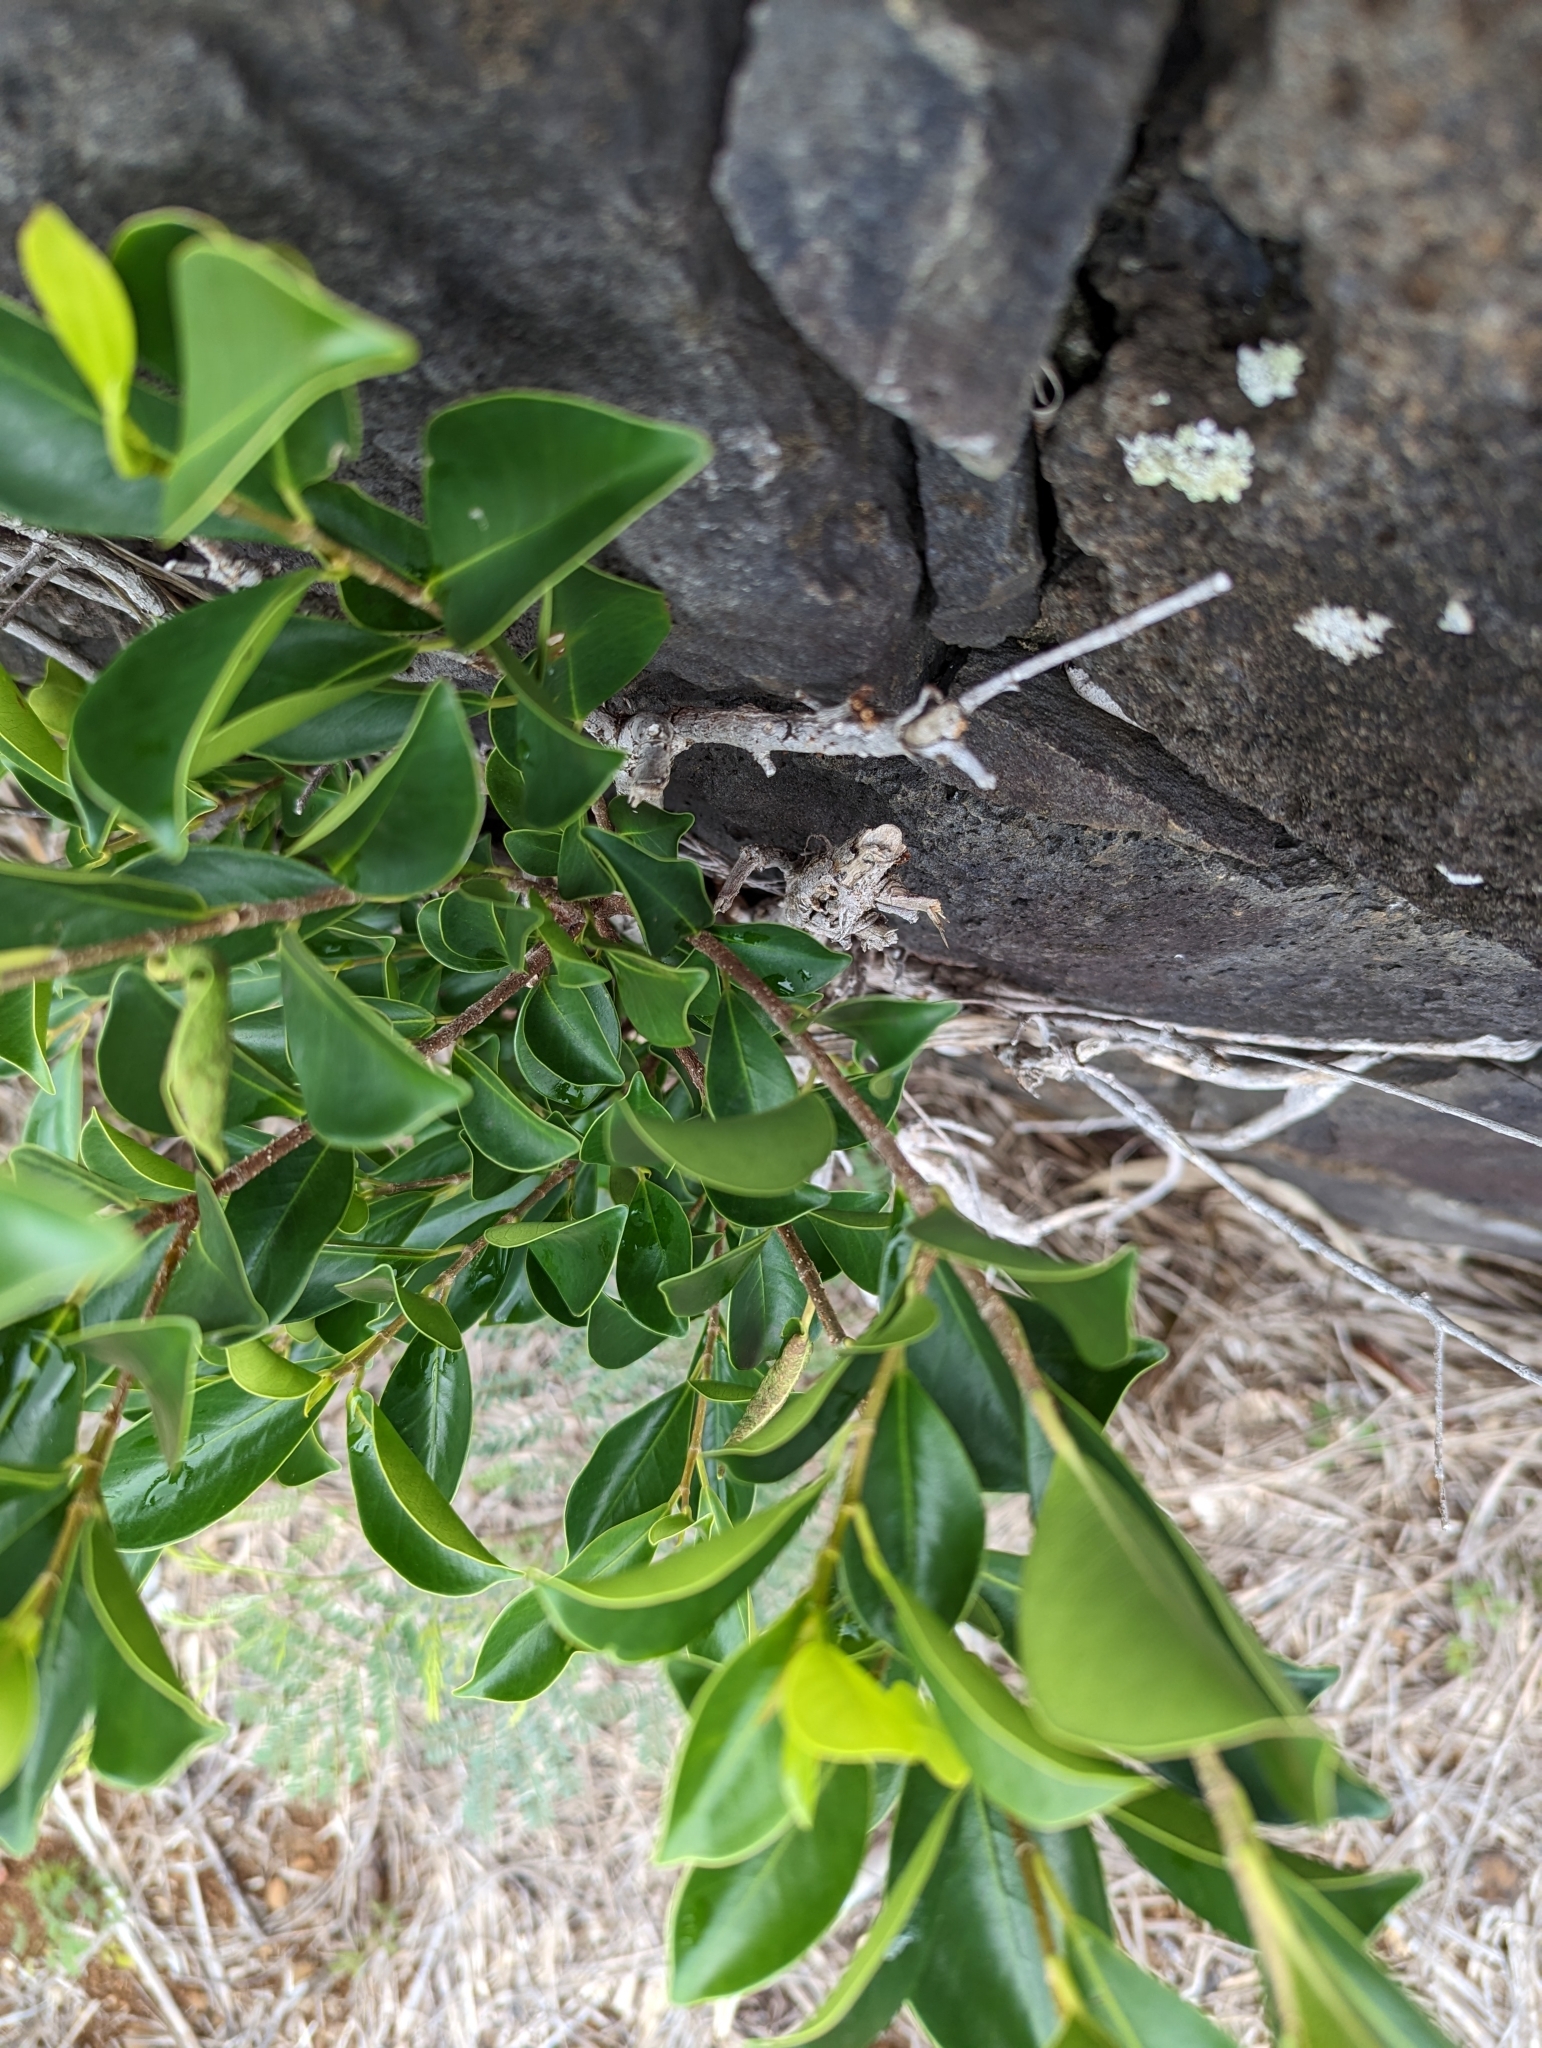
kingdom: Plantae
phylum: Tracheophyta
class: Magnoliopsida
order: Rosales
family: Moraceae
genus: Ficus
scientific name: Ficus microcarpa
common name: Chinese banyan
